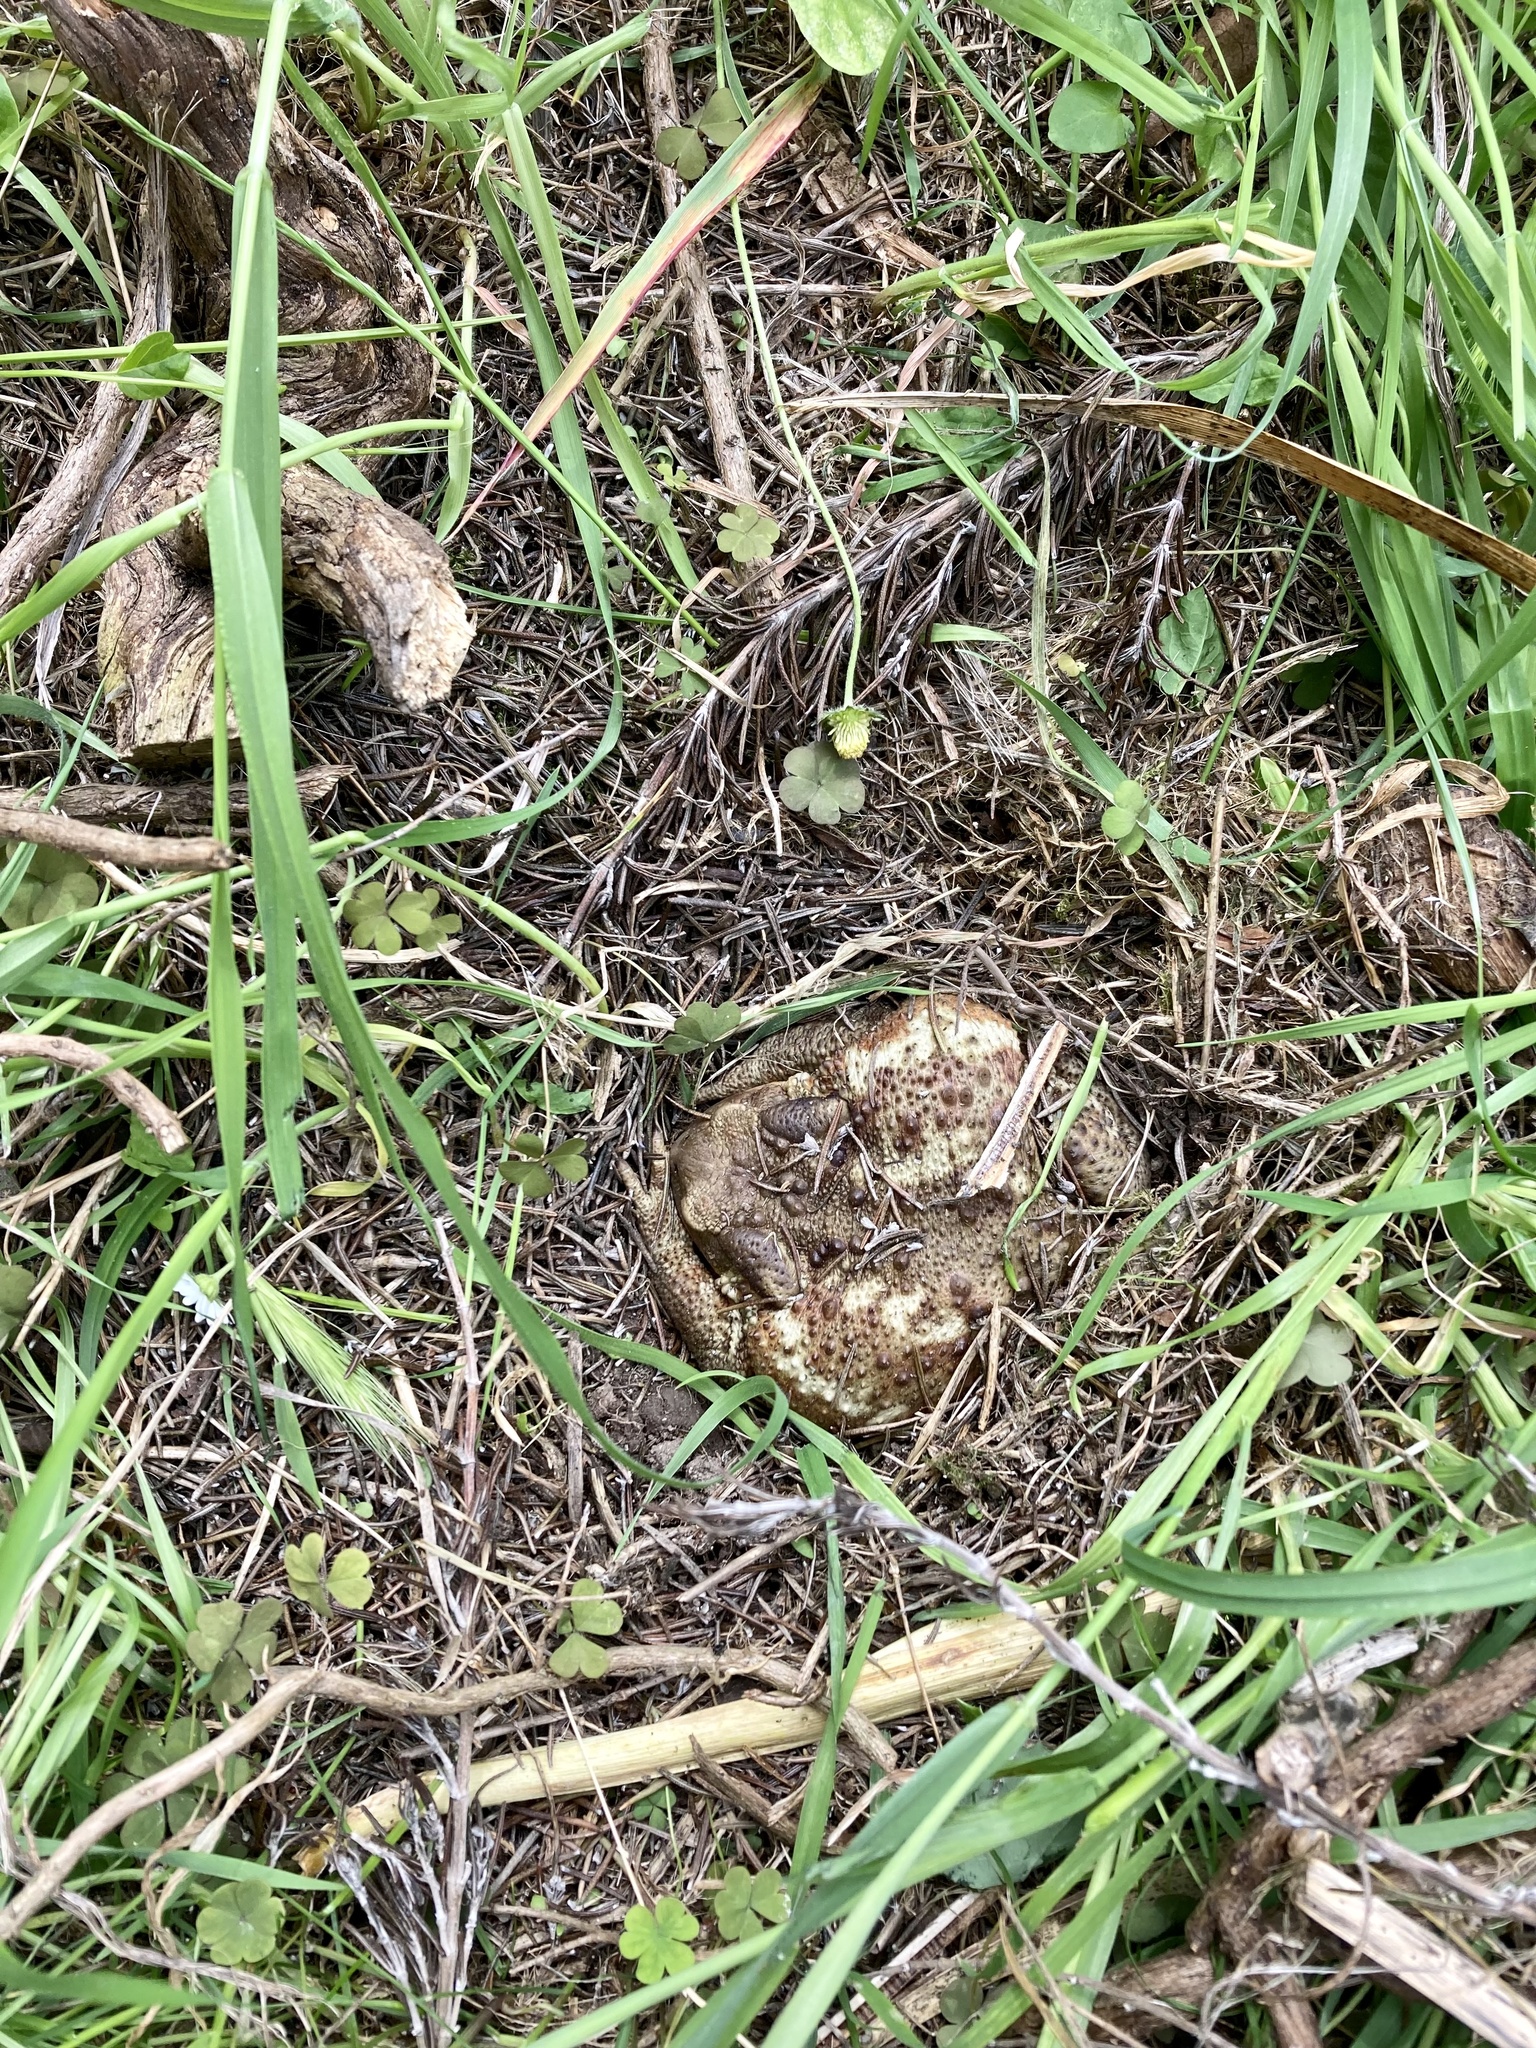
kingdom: Animalia
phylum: Chordata
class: Amphibia
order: Anura
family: Bufonidae
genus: Bufo
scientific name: Bufo bufo
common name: Common toad
